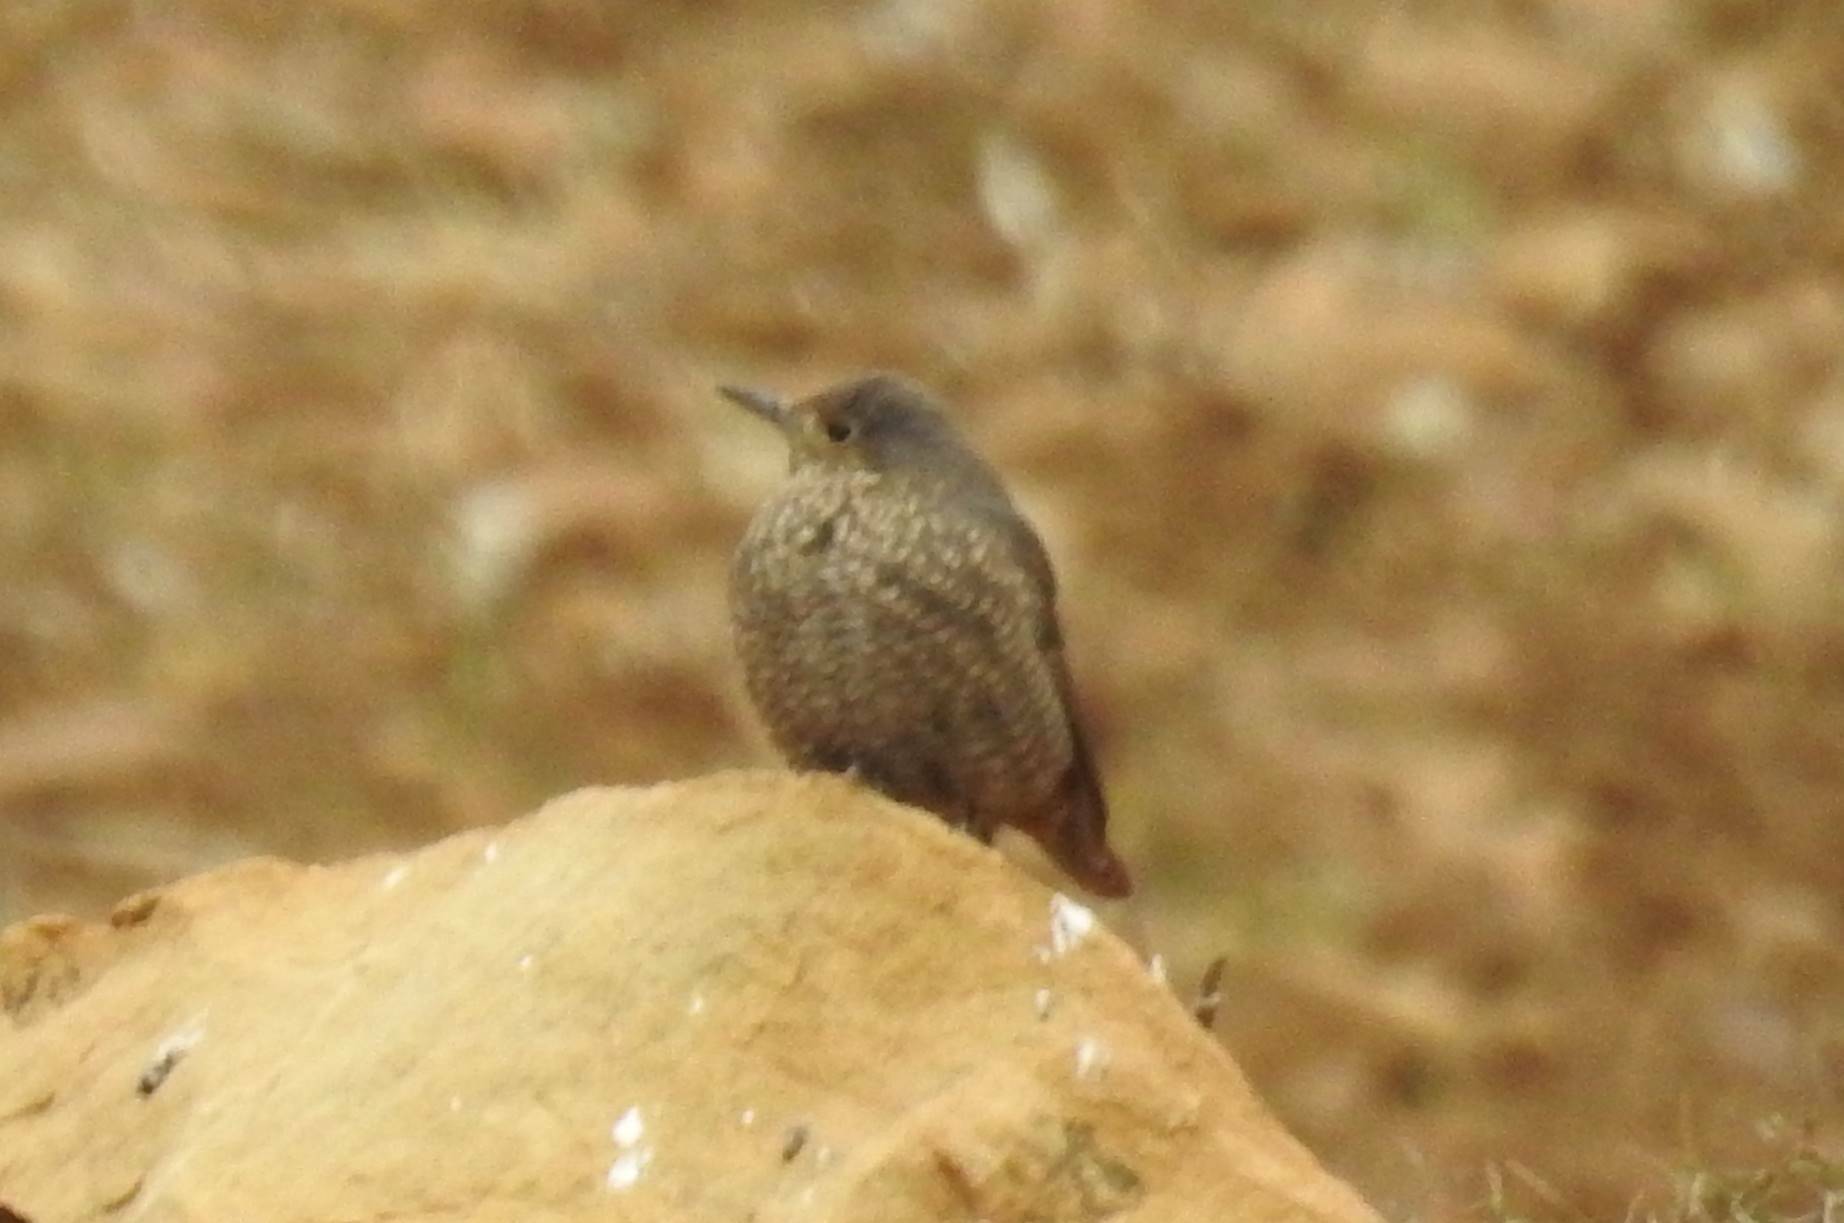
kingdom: Animalia
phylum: Chordata
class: Aves
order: Passeriformes
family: Muscicapidae
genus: Monticola
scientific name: Monticola solitarius
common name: Blue rock thrush
